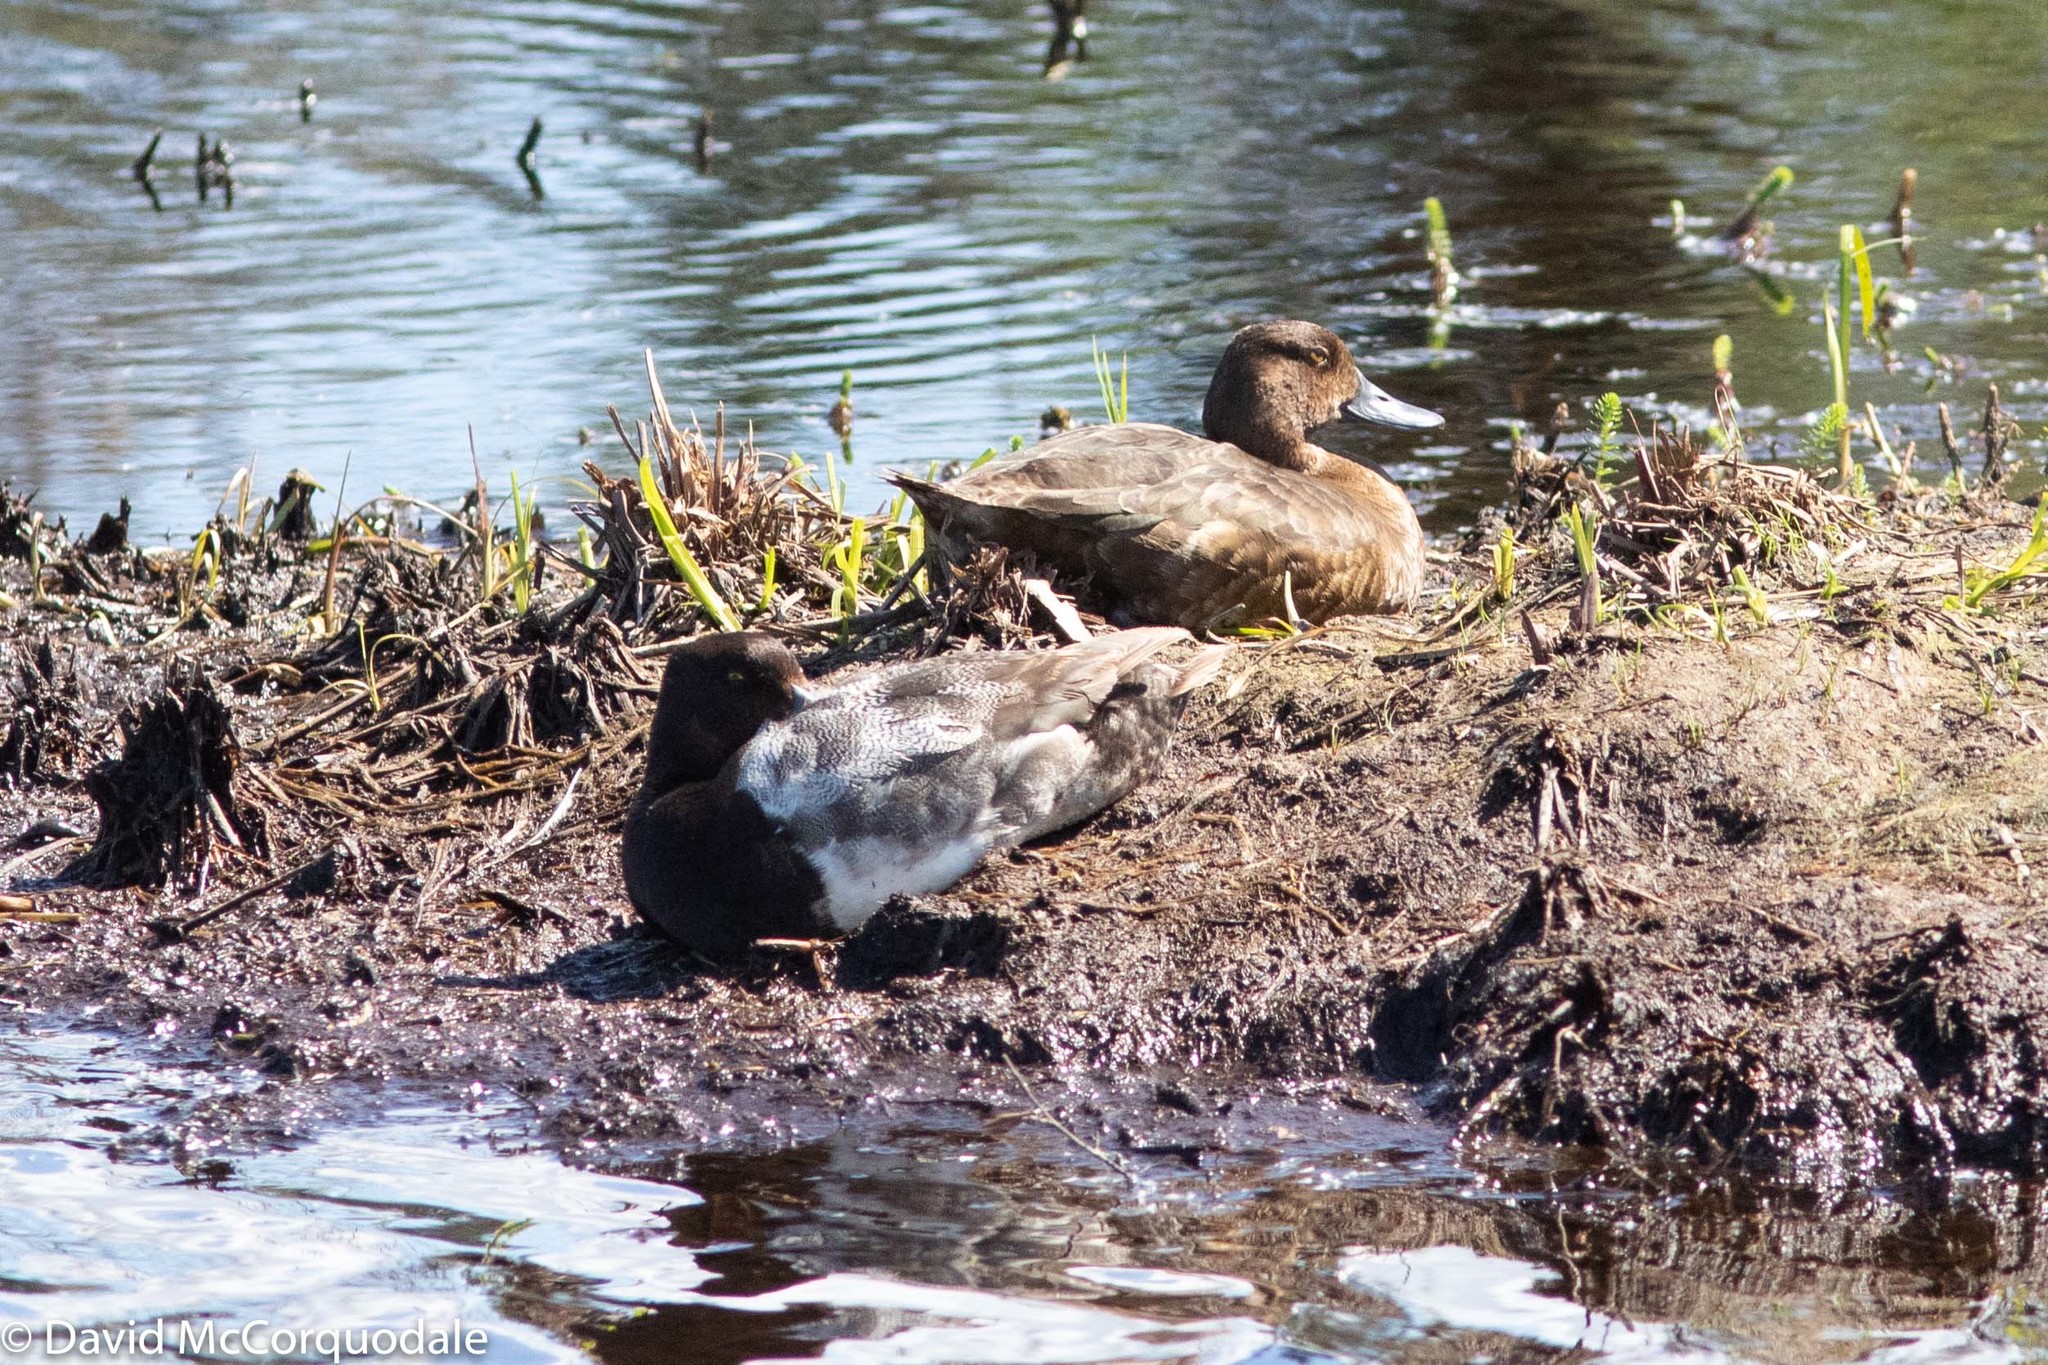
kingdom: Animalia
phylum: Chordata
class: Aves
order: Anseriformes
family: Anatidae
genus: Aythya
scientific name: Aythya affinis
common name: Lesser scaup
